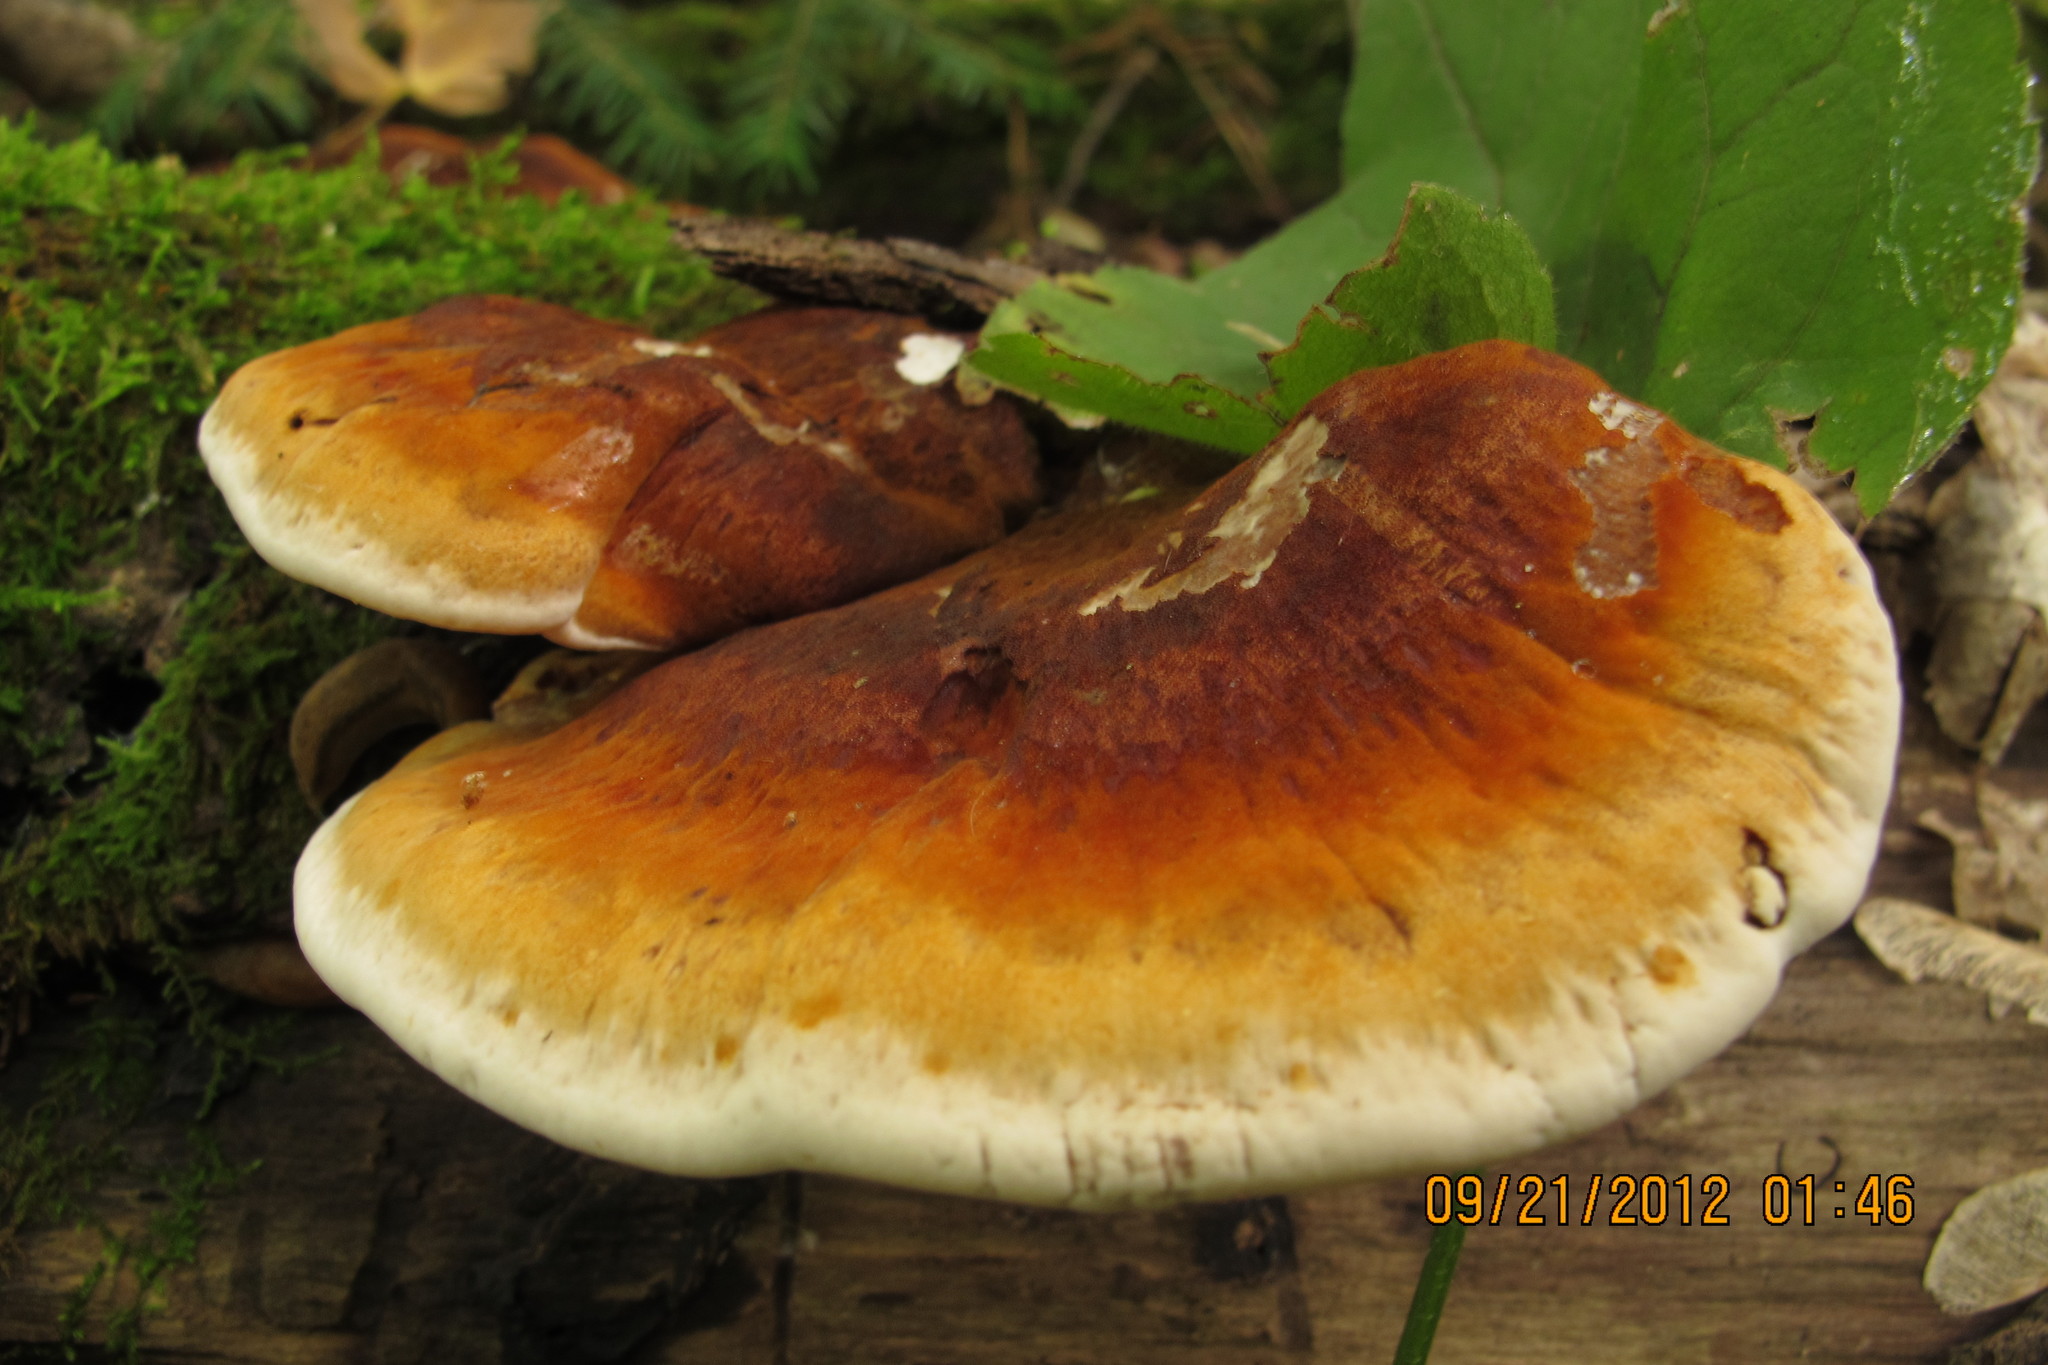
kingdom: Fungi
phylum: Basidiomycota
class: Agaricomycetes
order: Polyporales
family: Ischnodermataceae
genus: Ischnoderma
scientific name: Ischnoderma resinosum
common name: Resinous polypore
